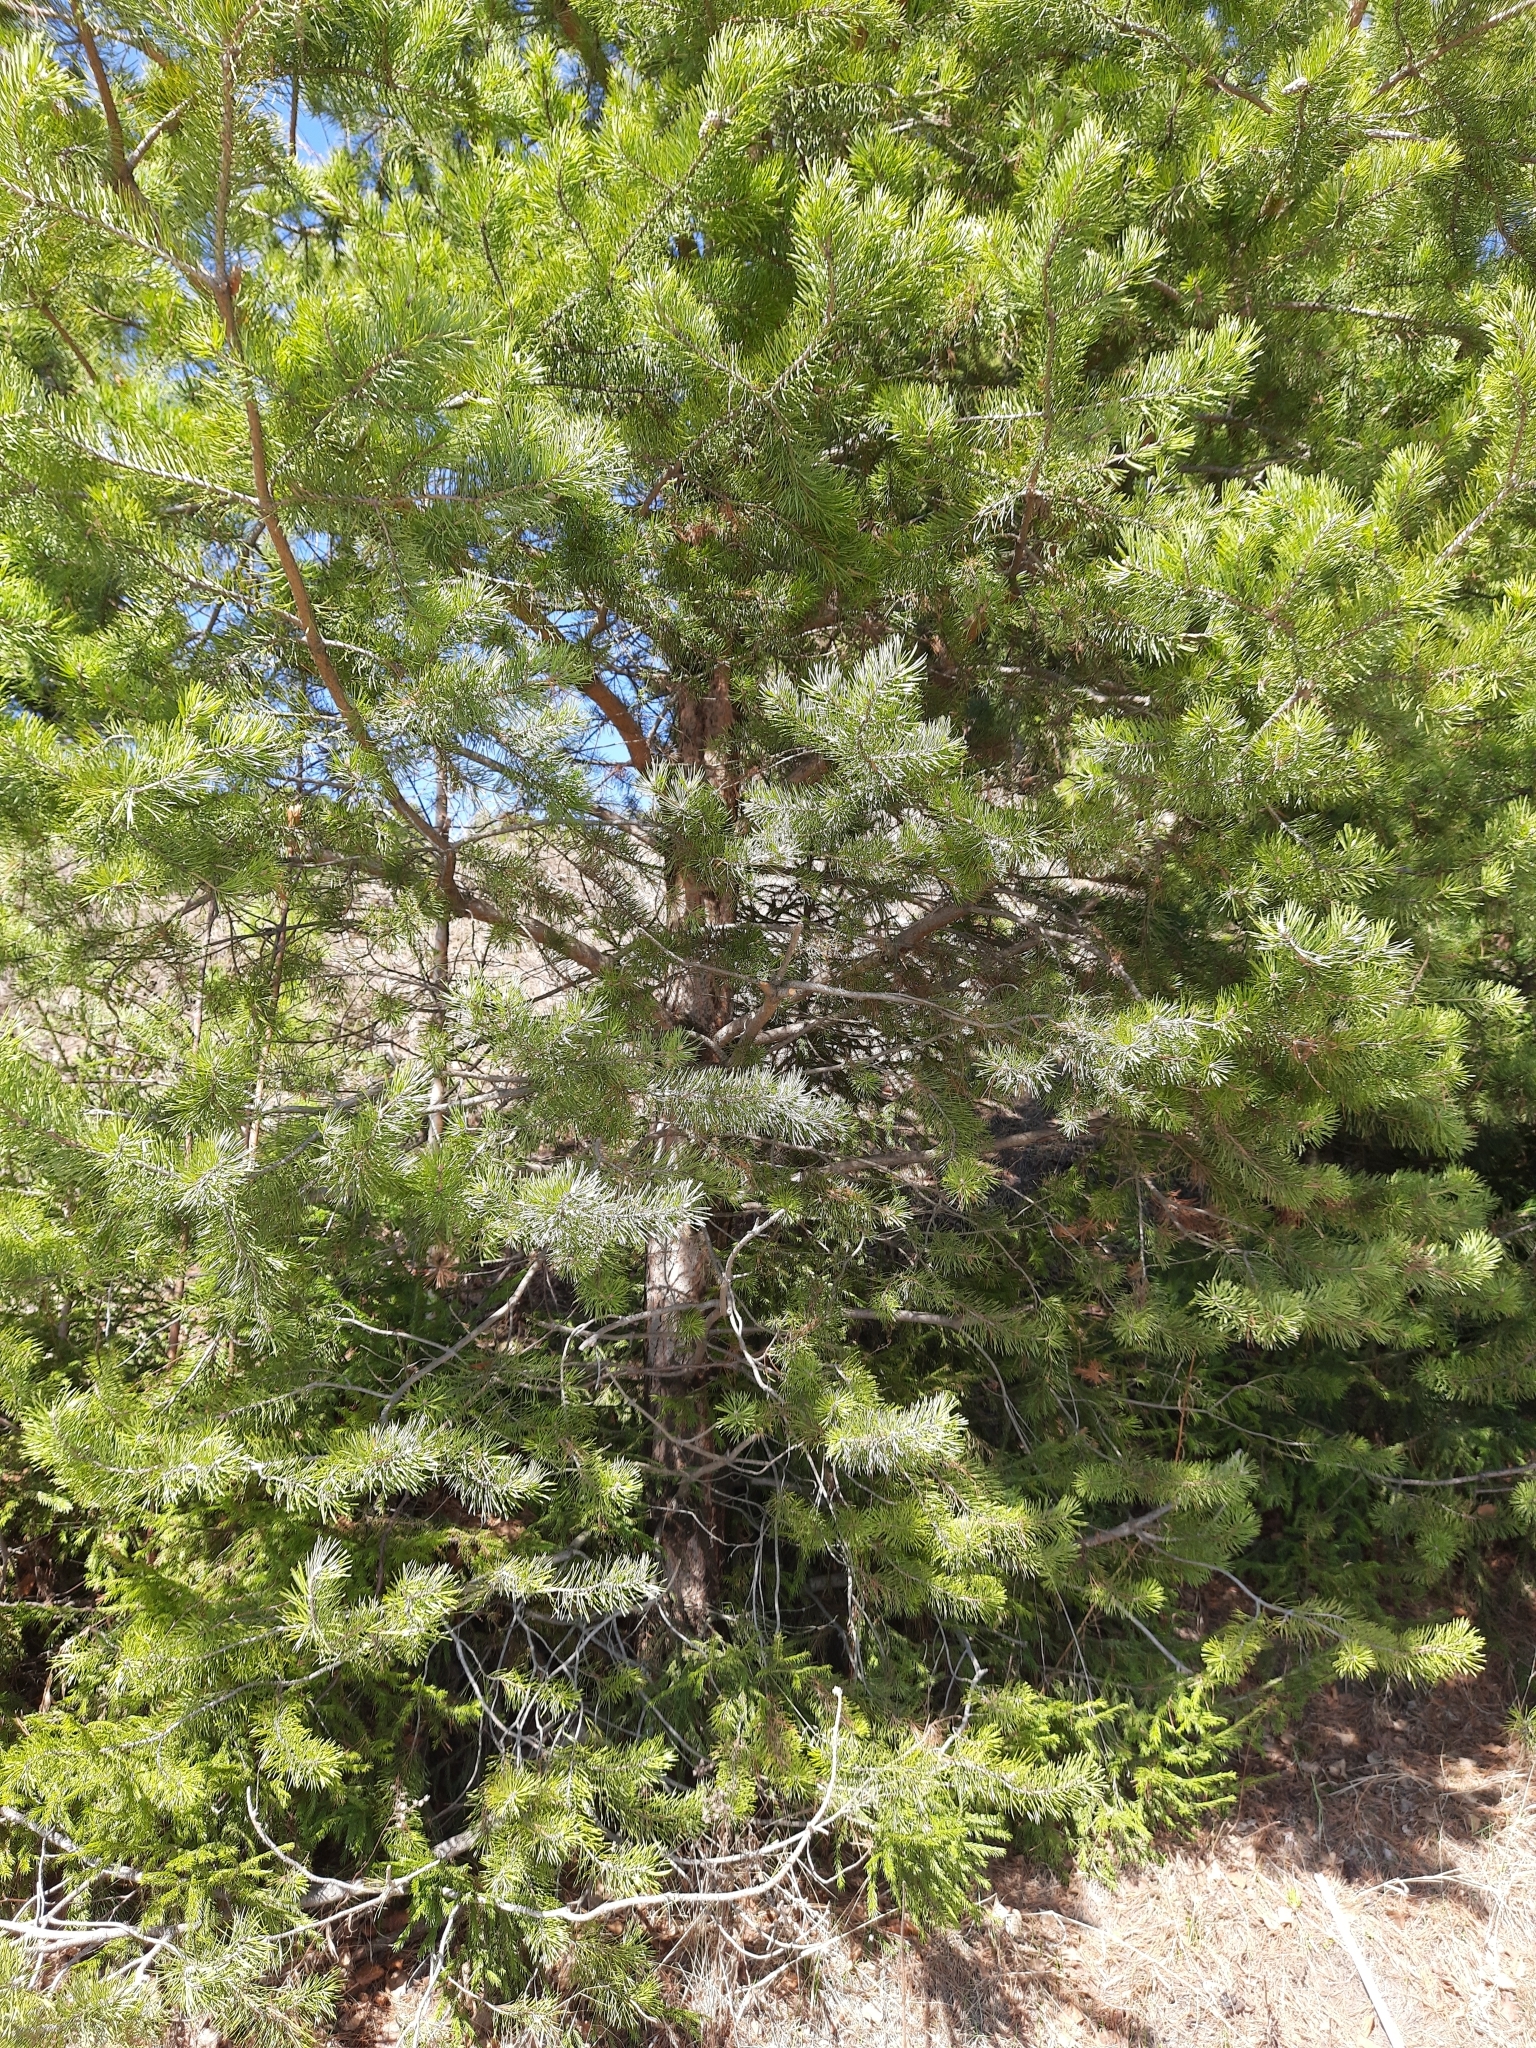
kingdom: Plantae
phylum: Tracheophyta
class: Pinopsida
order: Pinales
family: Pinaceae
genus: Pinus
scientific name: Pinus sylvestris
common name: Scots pine
